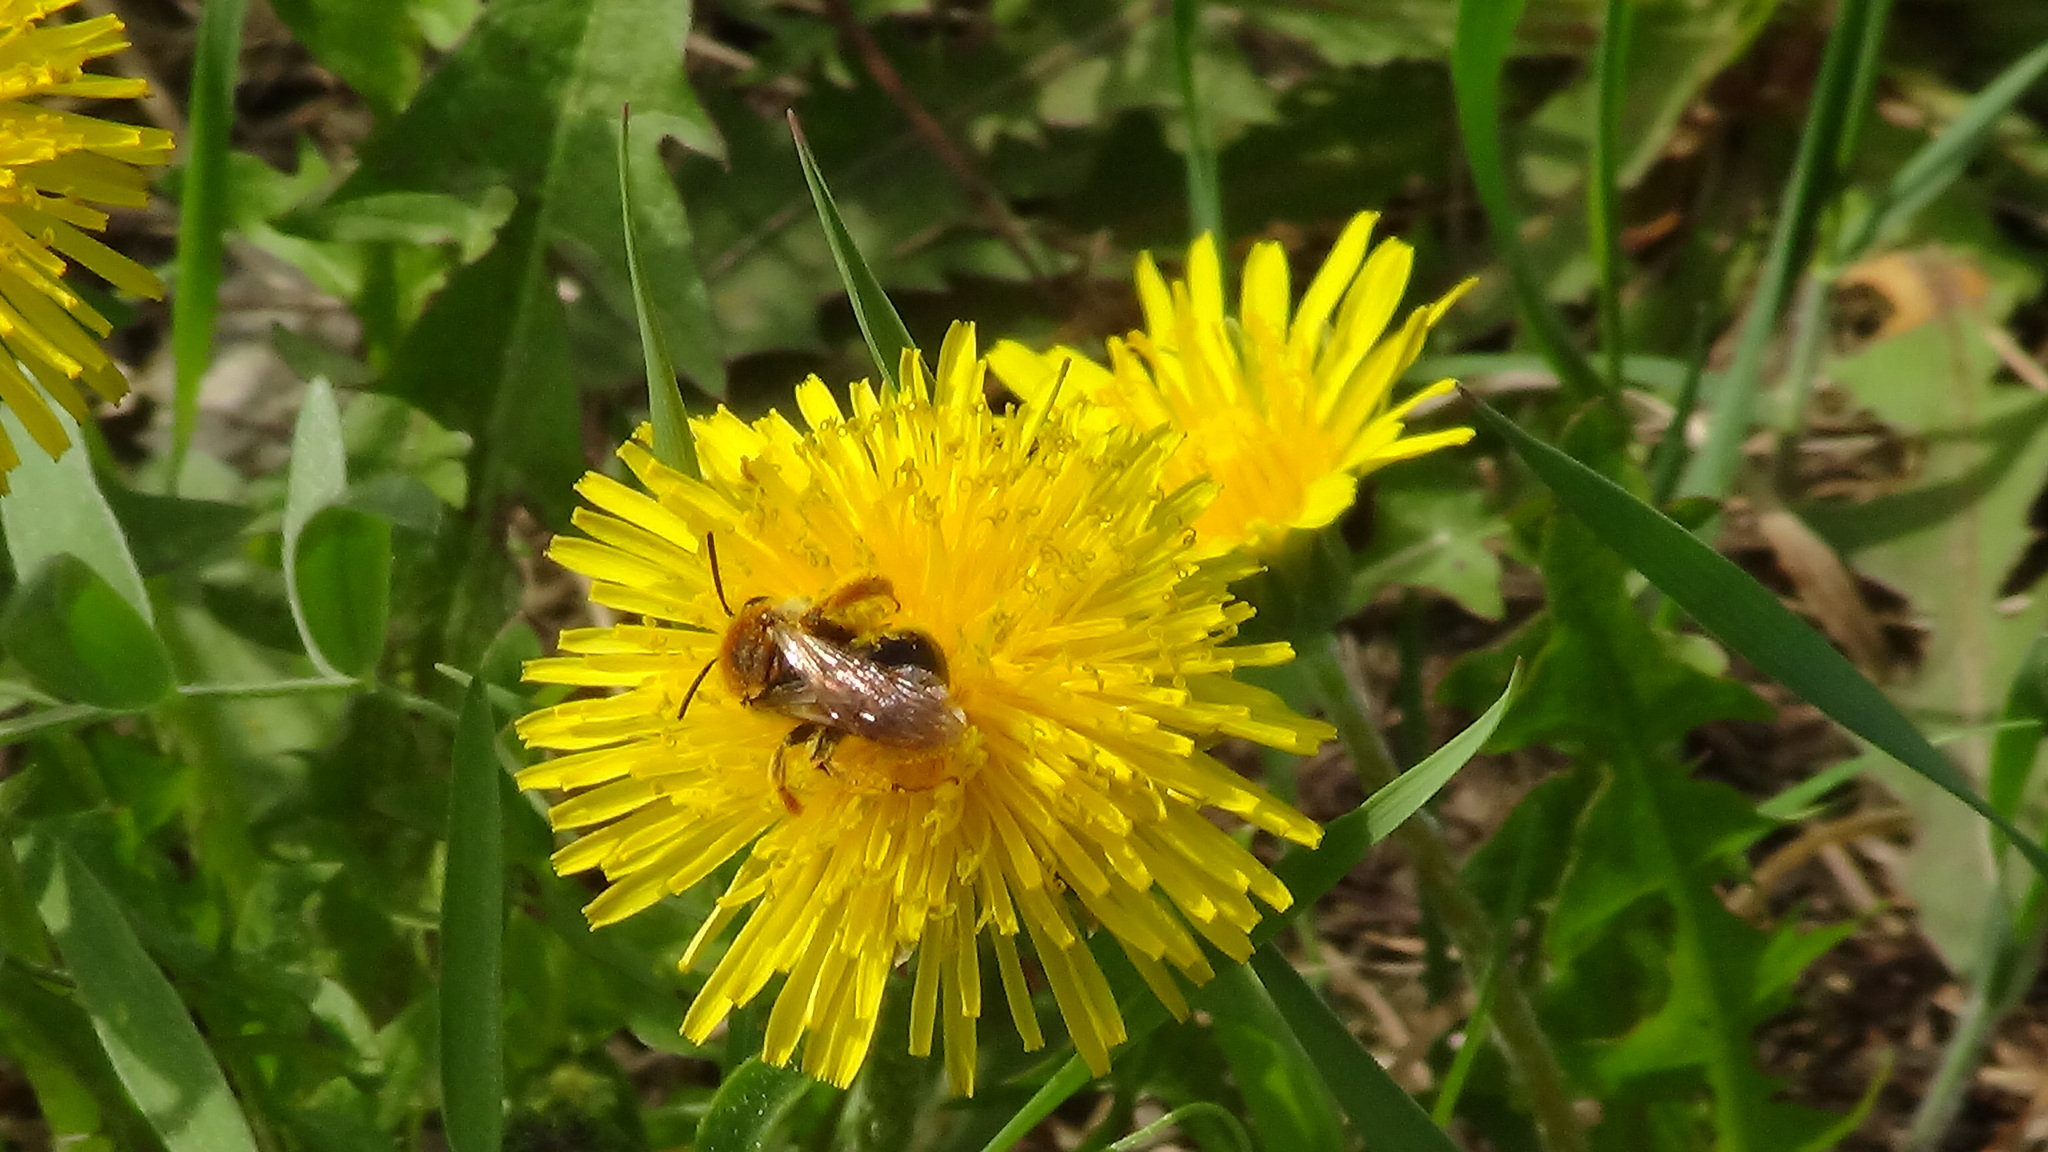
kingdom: Animalia
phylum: Arthropoda
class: Insecta
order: Hymenoptera
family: Andrenidae
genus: Andrena
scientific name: Andrena haemorrhoa
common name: Early mining bee
